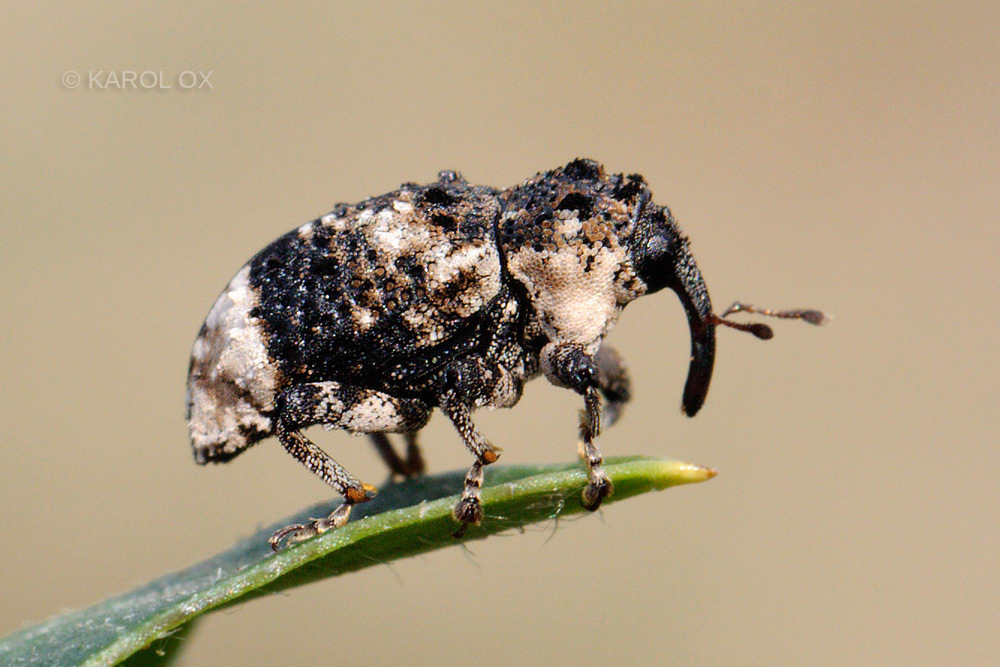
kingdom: Animalia
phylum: Arthropoda
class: Insecta
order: Coleoptera
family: Curculionidae
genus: Cryptorhynchus
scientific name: Cryptorhynchus lapathi
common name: Weevil
